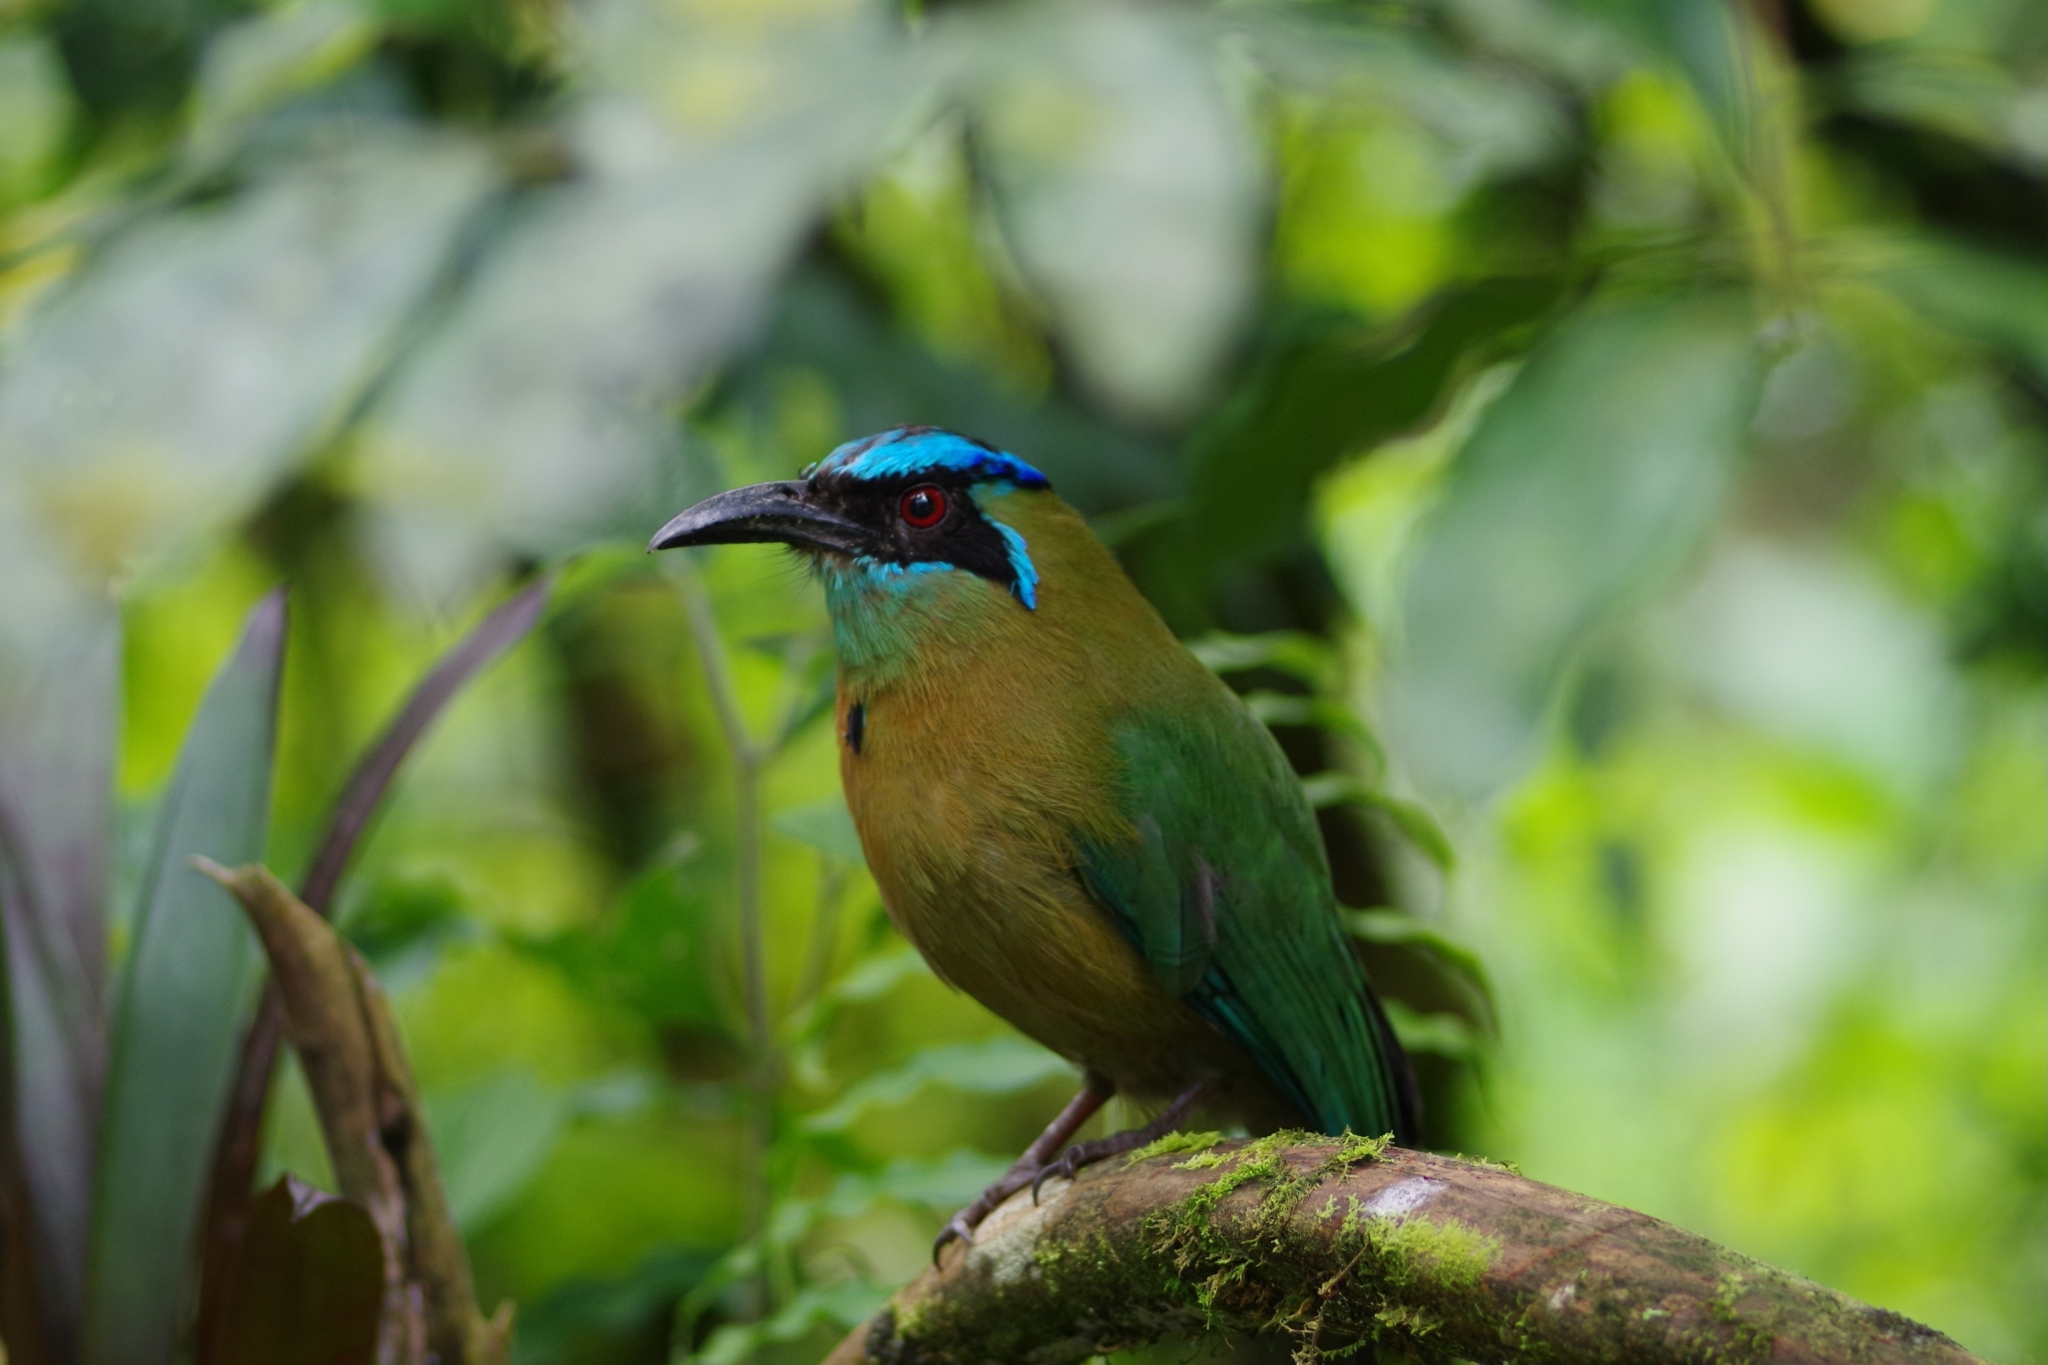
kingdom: Animalia
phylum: Chordata
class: Aves
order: Coraciiformes
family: Momotidae
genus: Momotus
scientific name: Momotus lessonii
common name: Lesson's motmot
